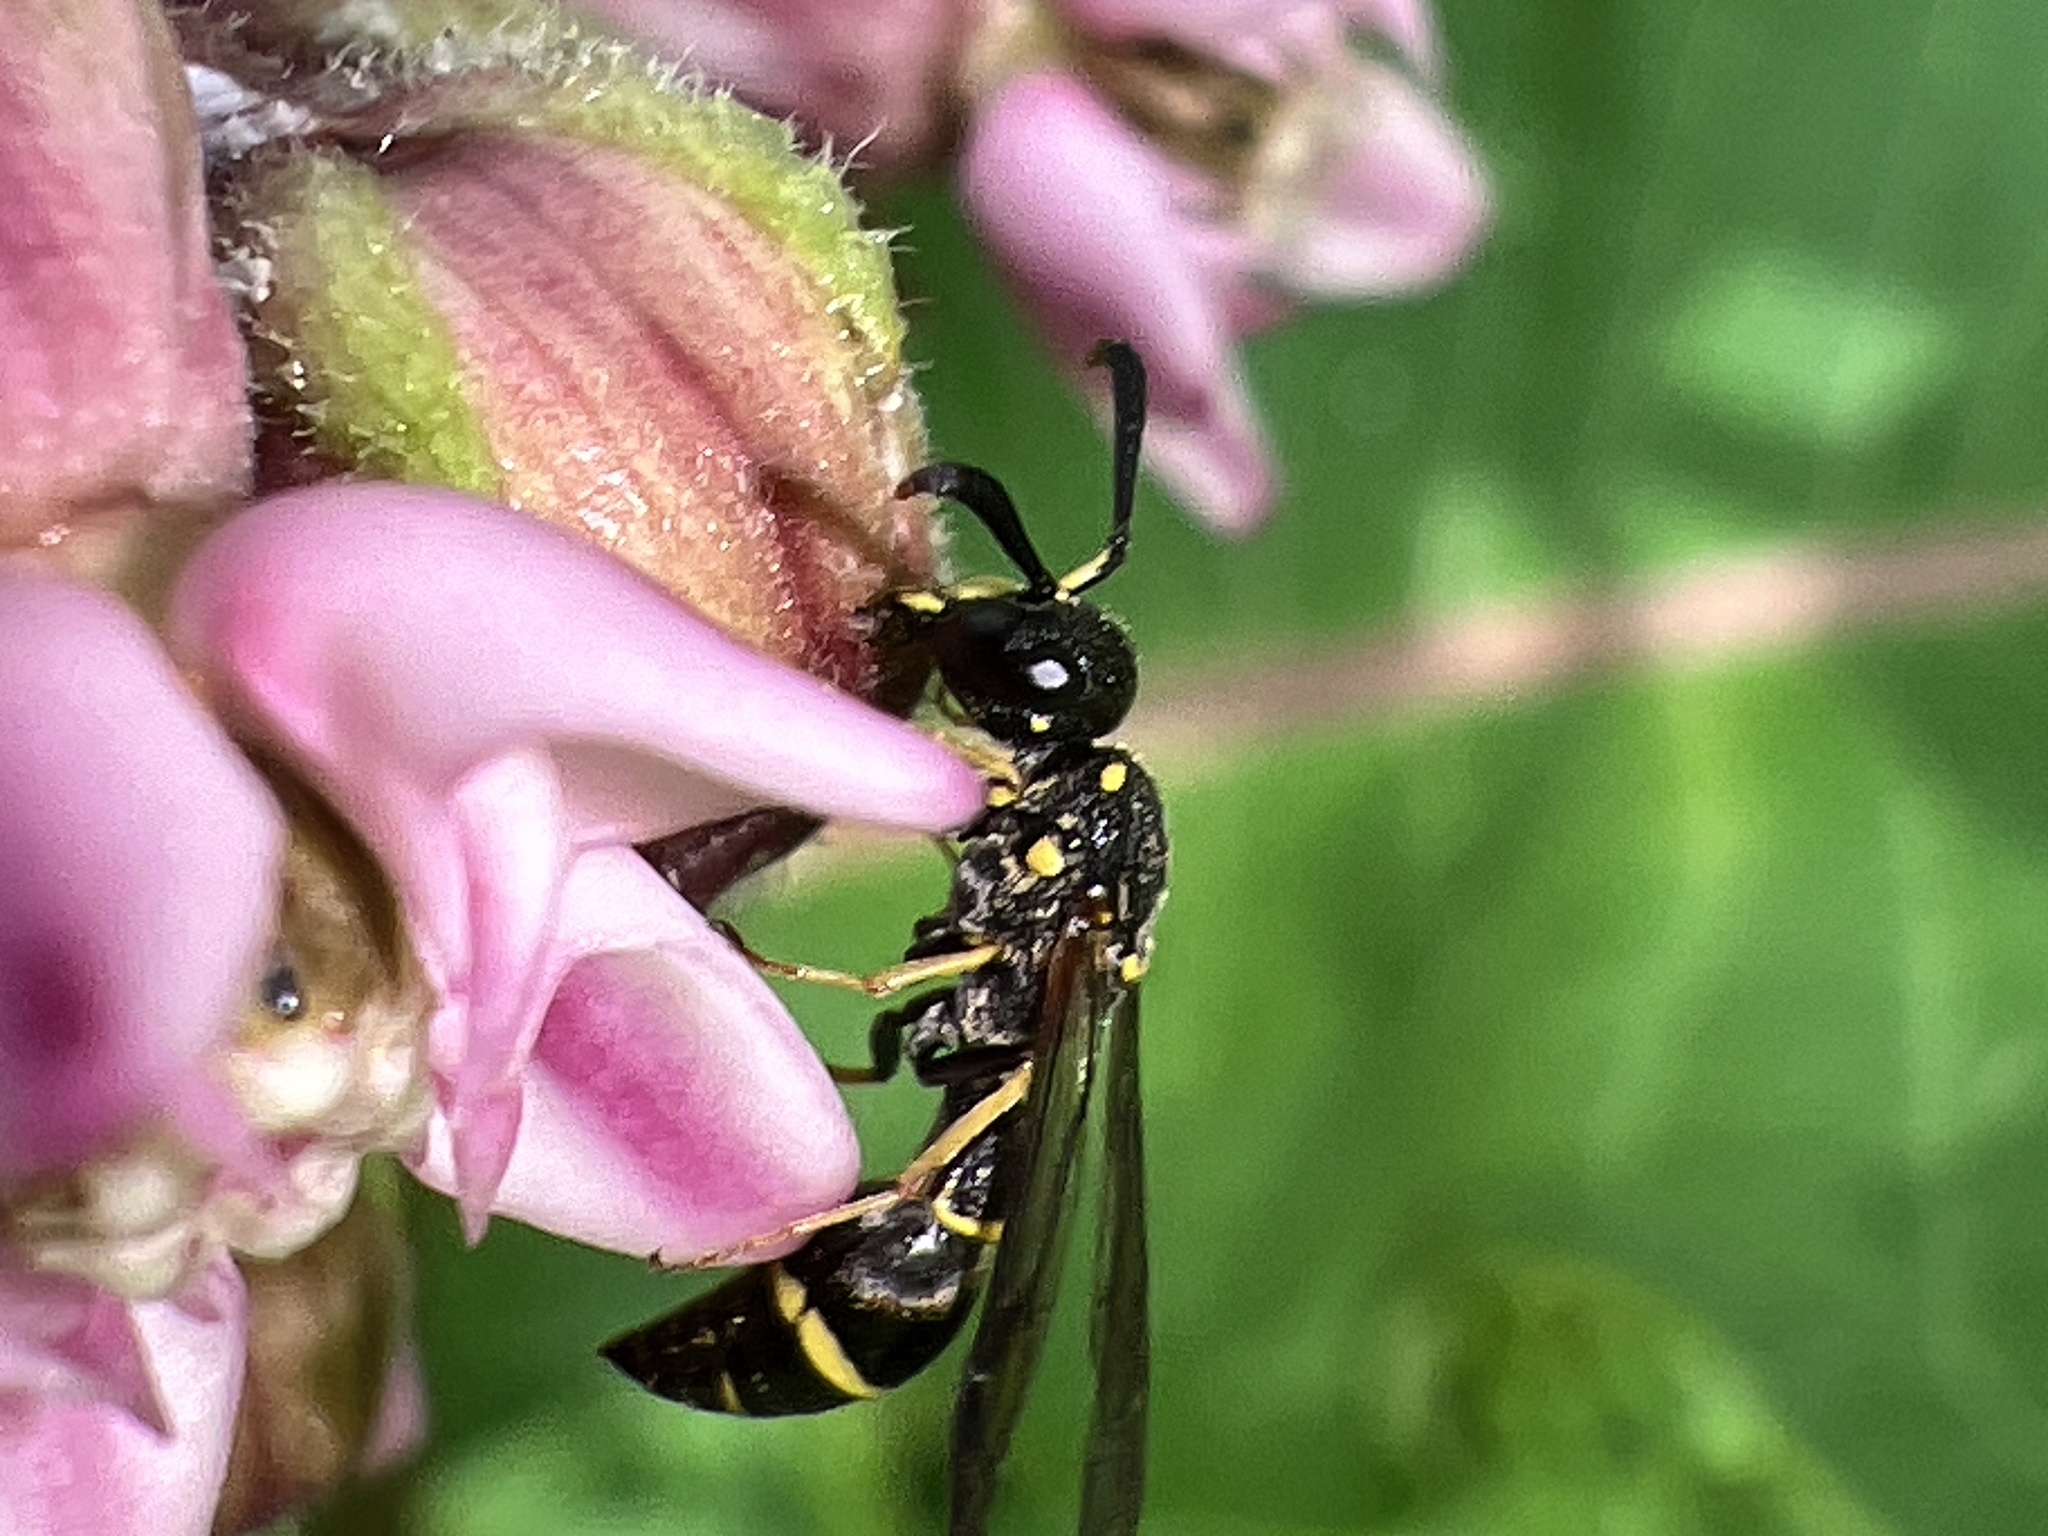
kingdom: Animalia
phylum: Arthropoda
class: Insecta
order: Hymenoptera
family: Eumenidae
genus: Symmorphus
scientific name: Symmorphus
